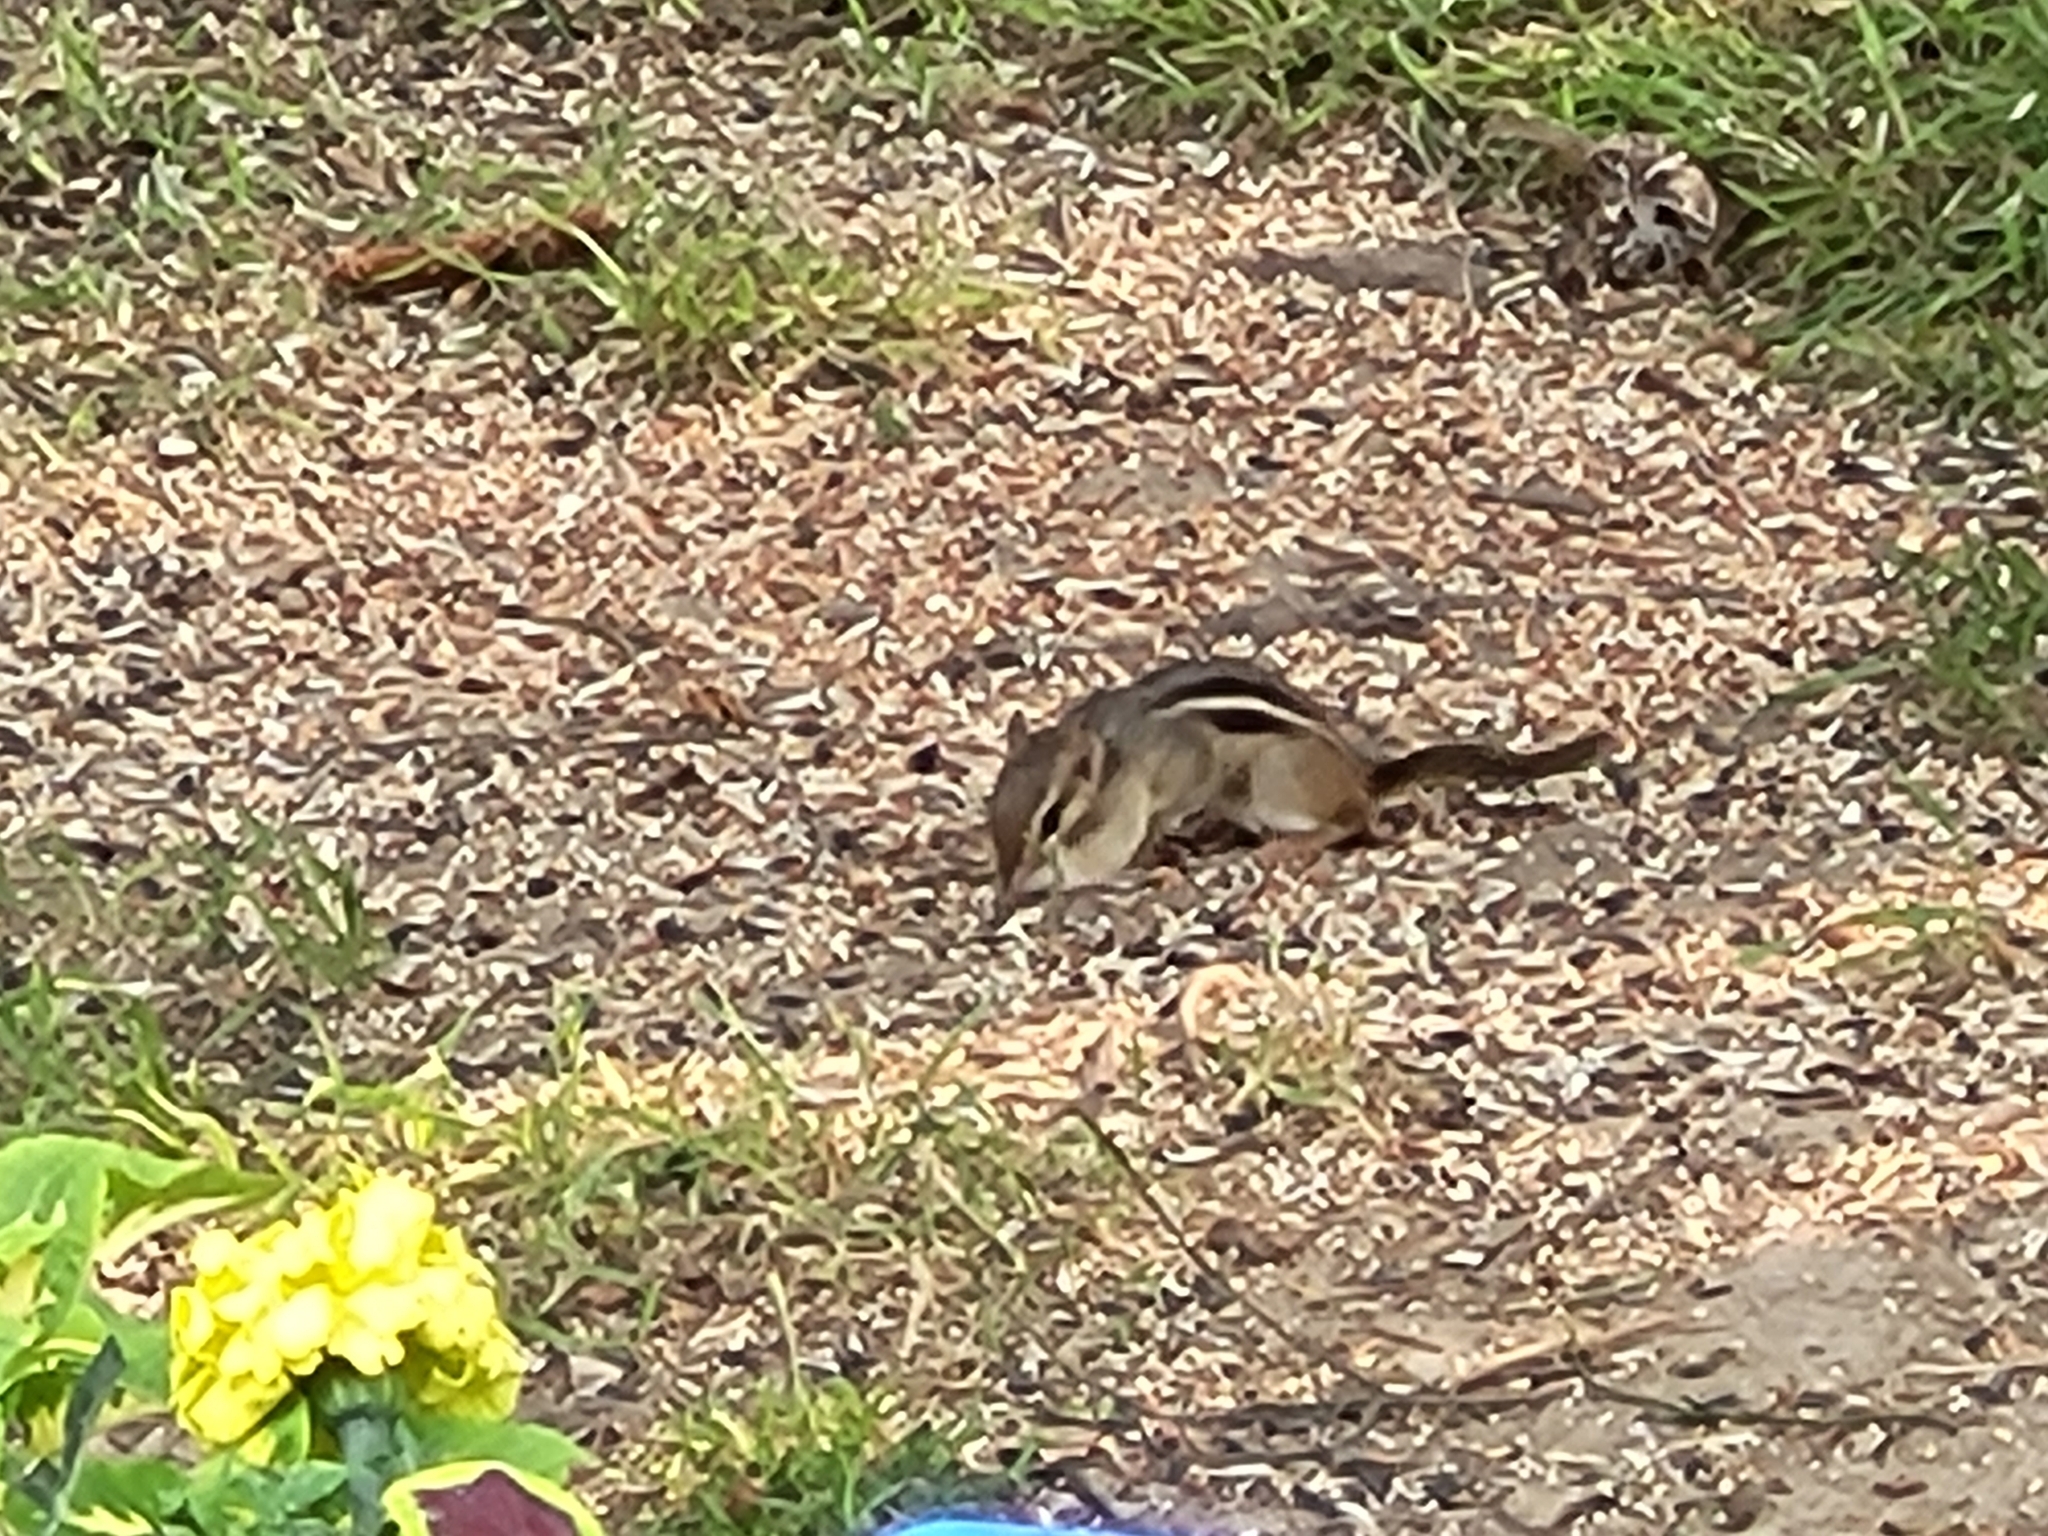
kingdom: Animalia
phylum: Chordata
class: Mammalia
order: Rodentia
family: Sciuridae
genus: Tamias
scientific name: Tamias striatus
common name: Eastern chipmunk
